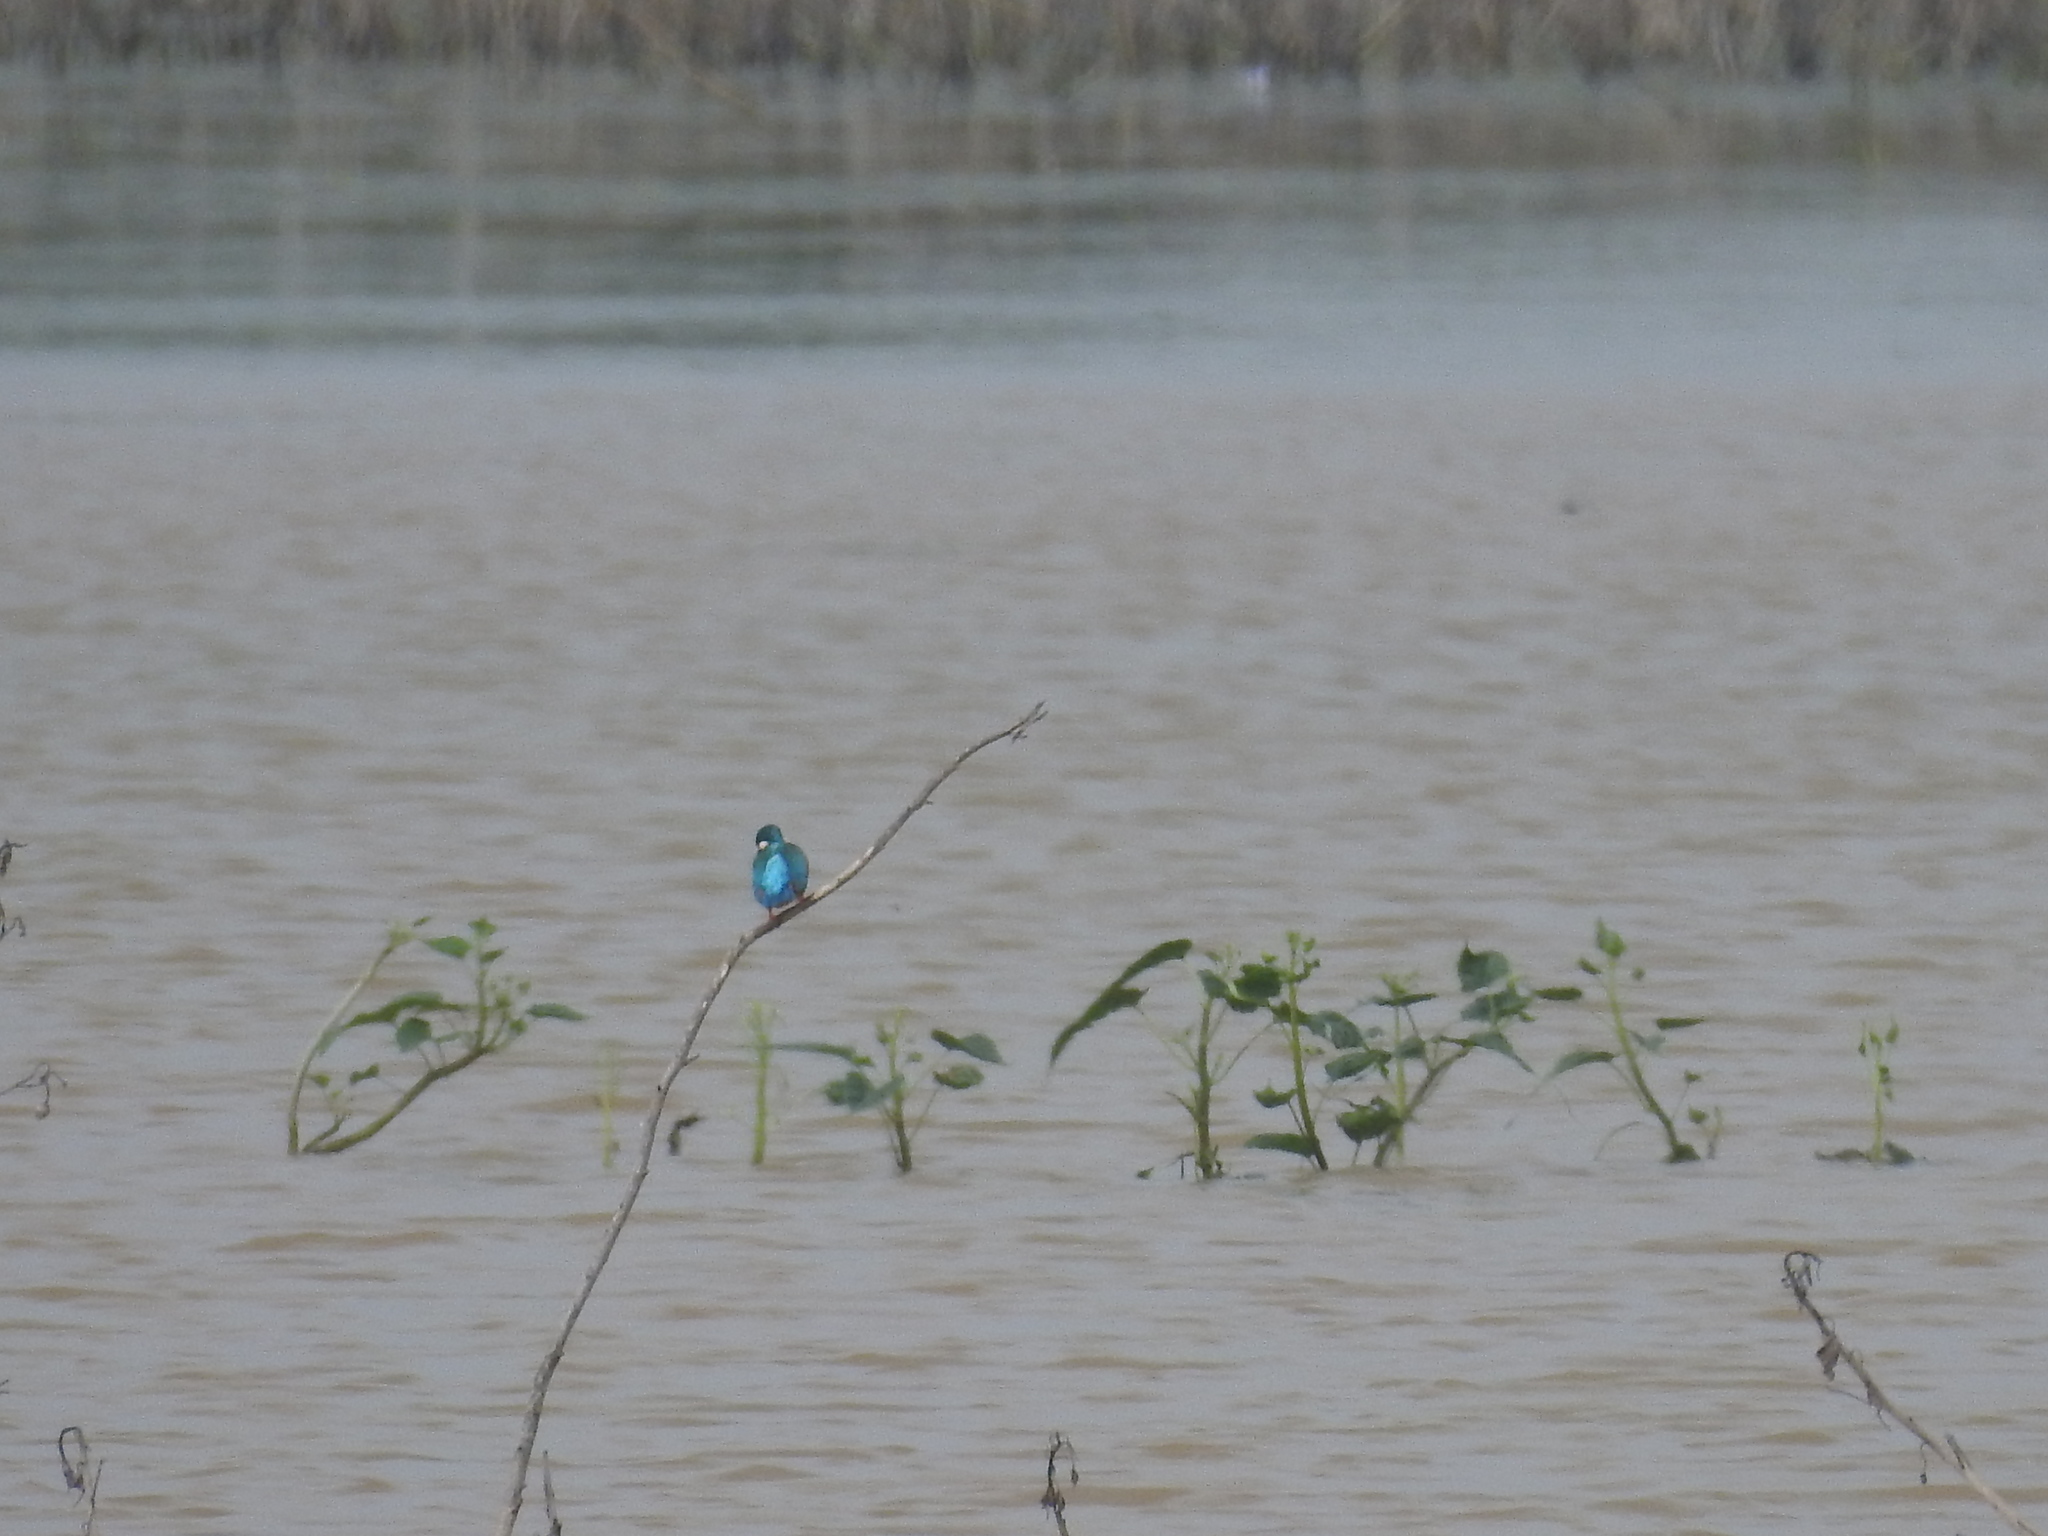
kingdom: Animalia
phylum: Chordata
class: Aves
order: Coraciiformes
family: Alcedinidae
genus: Alcedo
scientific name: Alcedo atthis
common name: Common kingfisher
